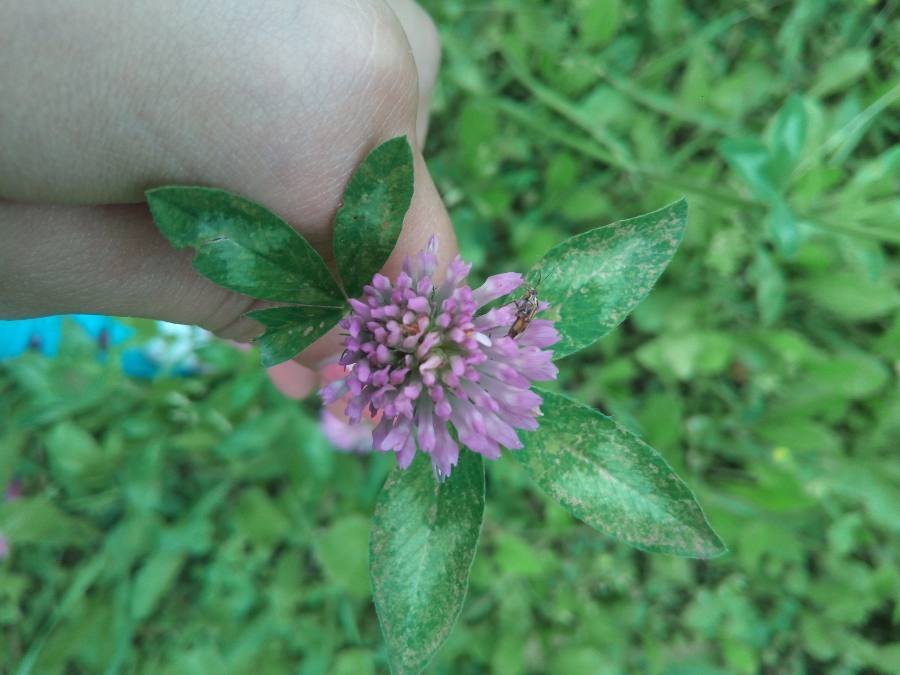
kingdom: Plantae
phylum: Tracheophyta
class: Magnoliopsida
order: Fabales
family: Fabaceae
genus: Trifolium
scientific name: Trifolium pratense
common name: Red clover
